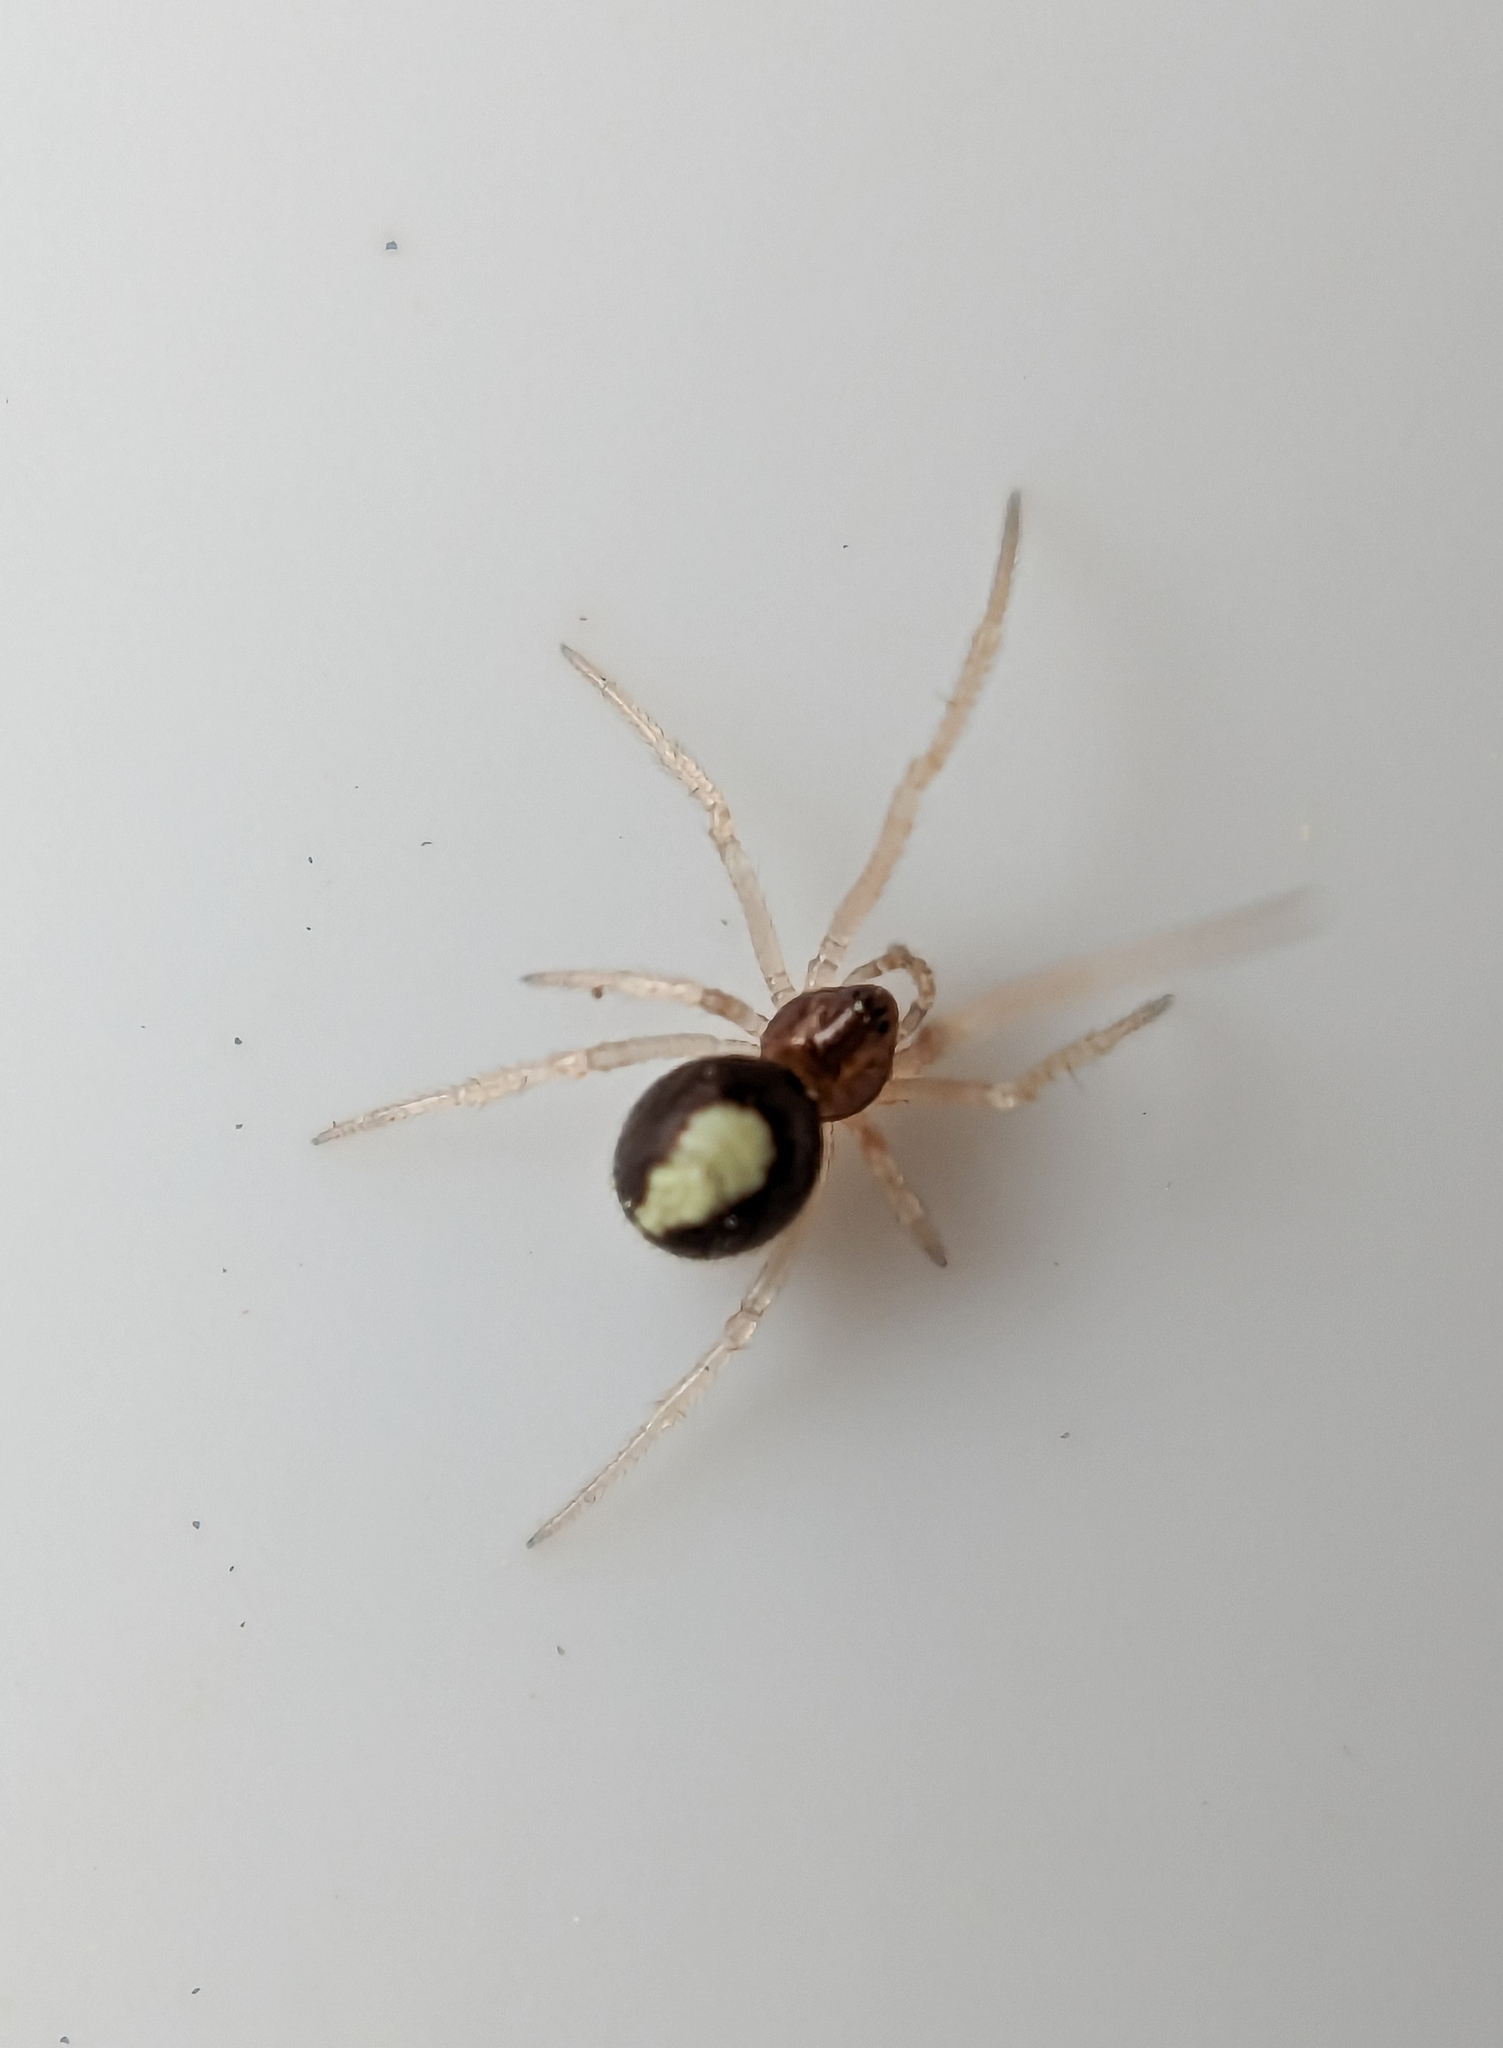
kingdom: Animalia
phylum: Arthropoda
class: Arachnida
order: Araneae
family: Theridiidae
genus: Neottiura
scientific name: Neottiura bimaculata
